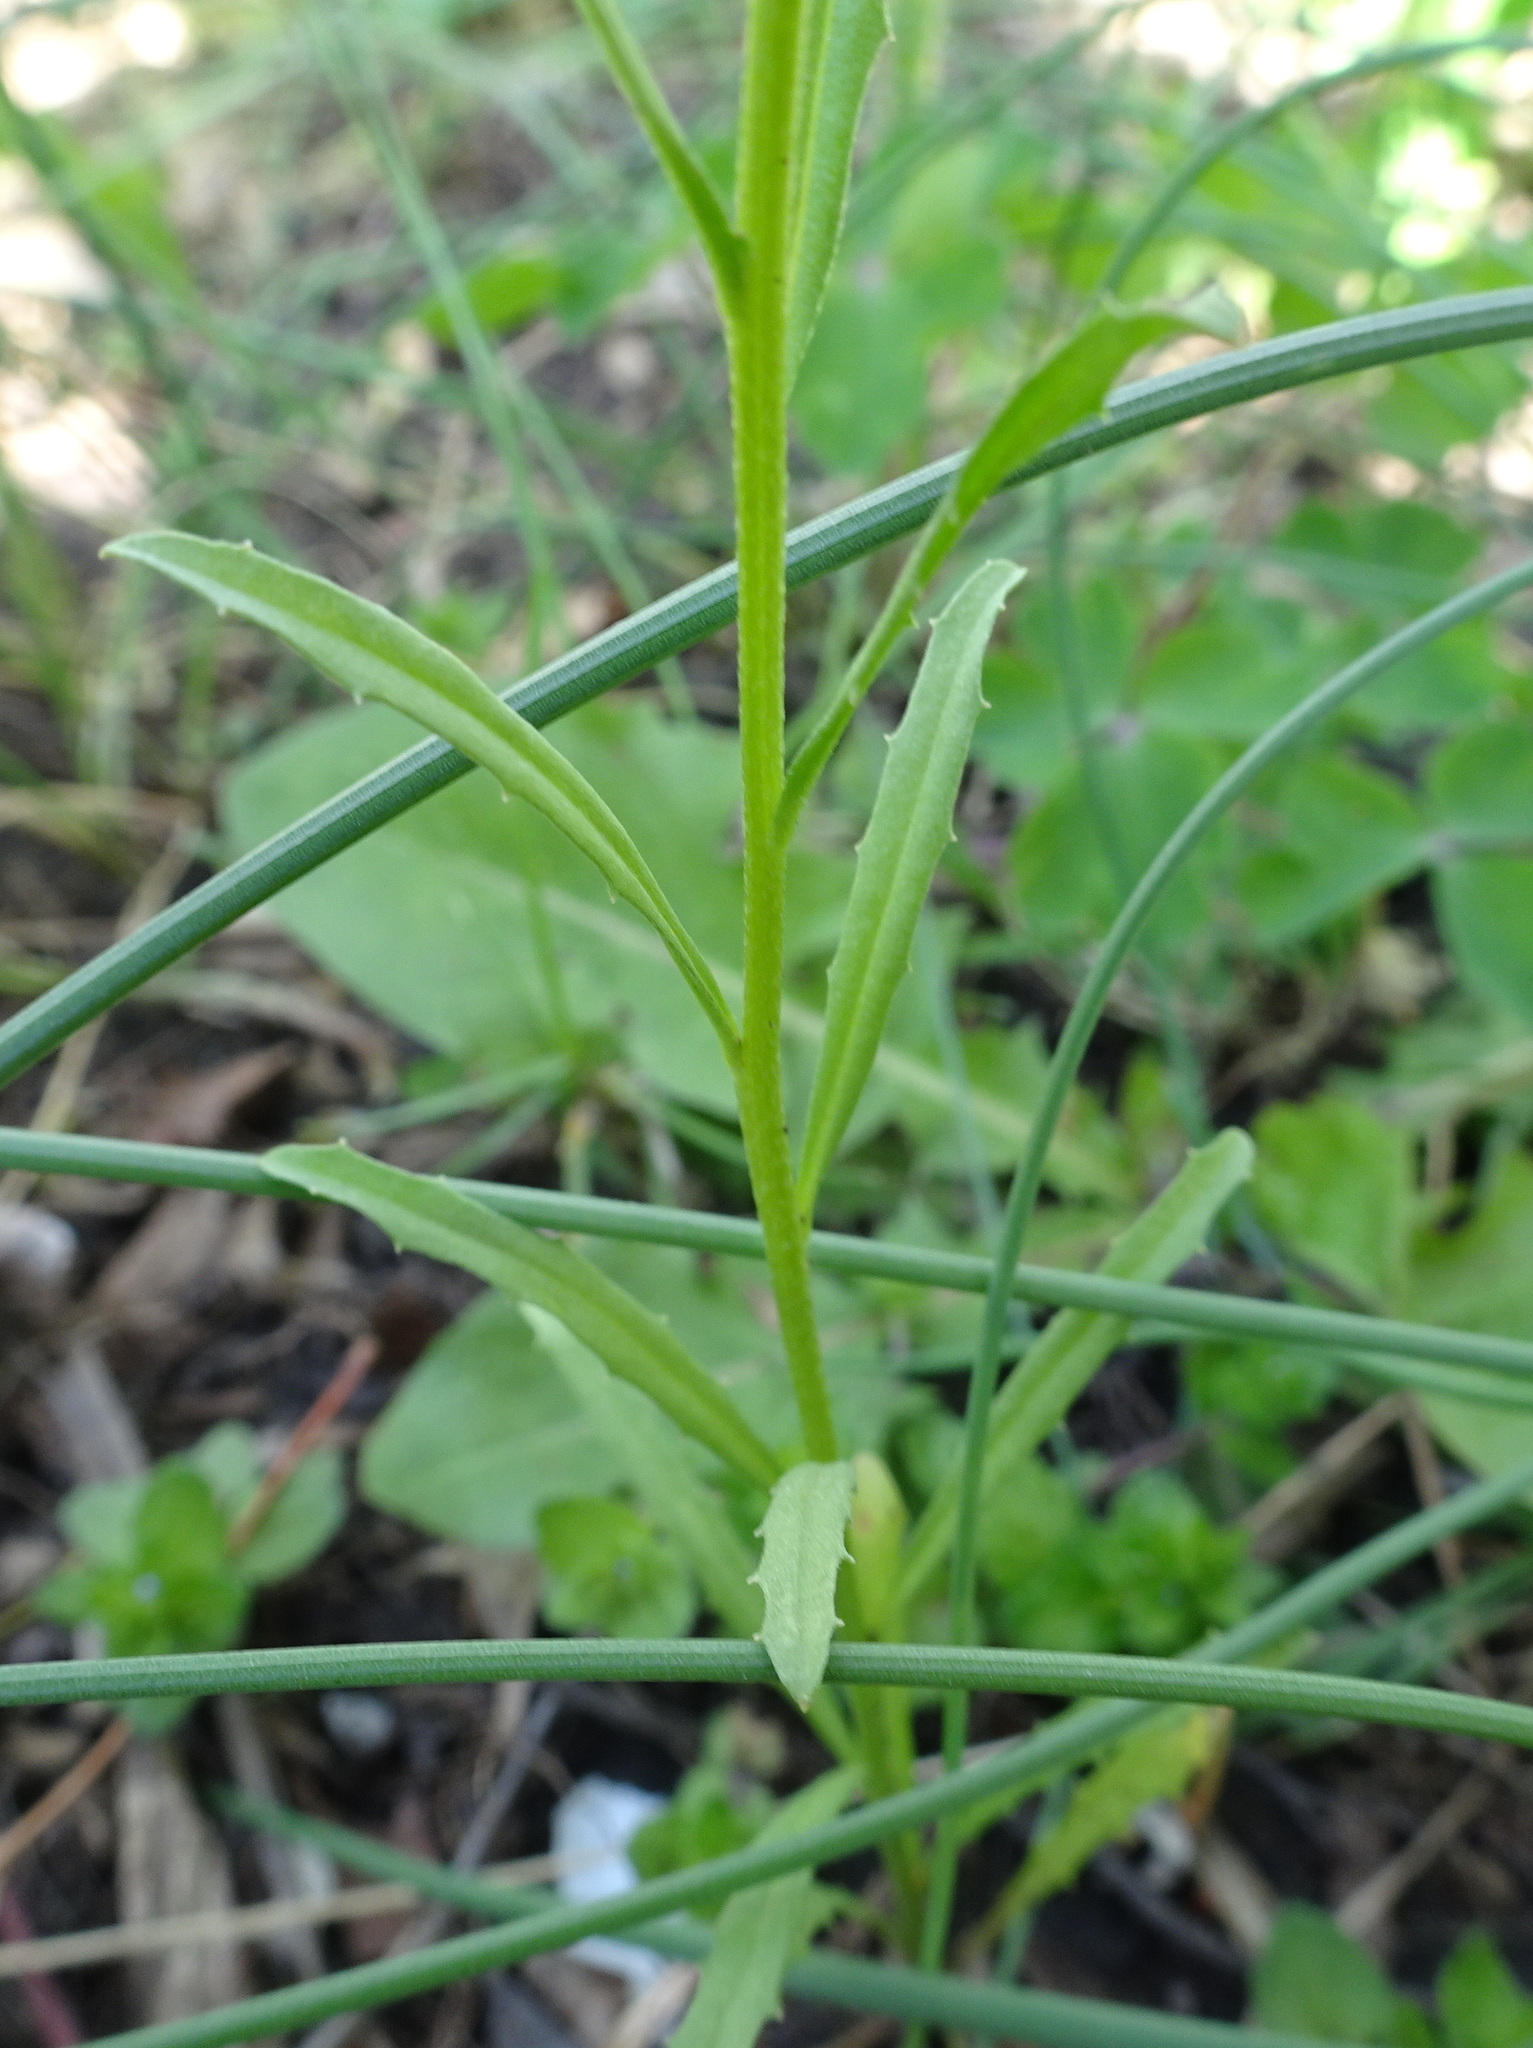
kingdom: Plantae
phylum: Tracheophyta
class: Magnoliopsida
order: Brassicales
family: Brassicaceae
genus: Erysimum
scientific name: Erysimum cheiranthoides
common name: Treacle mustard
